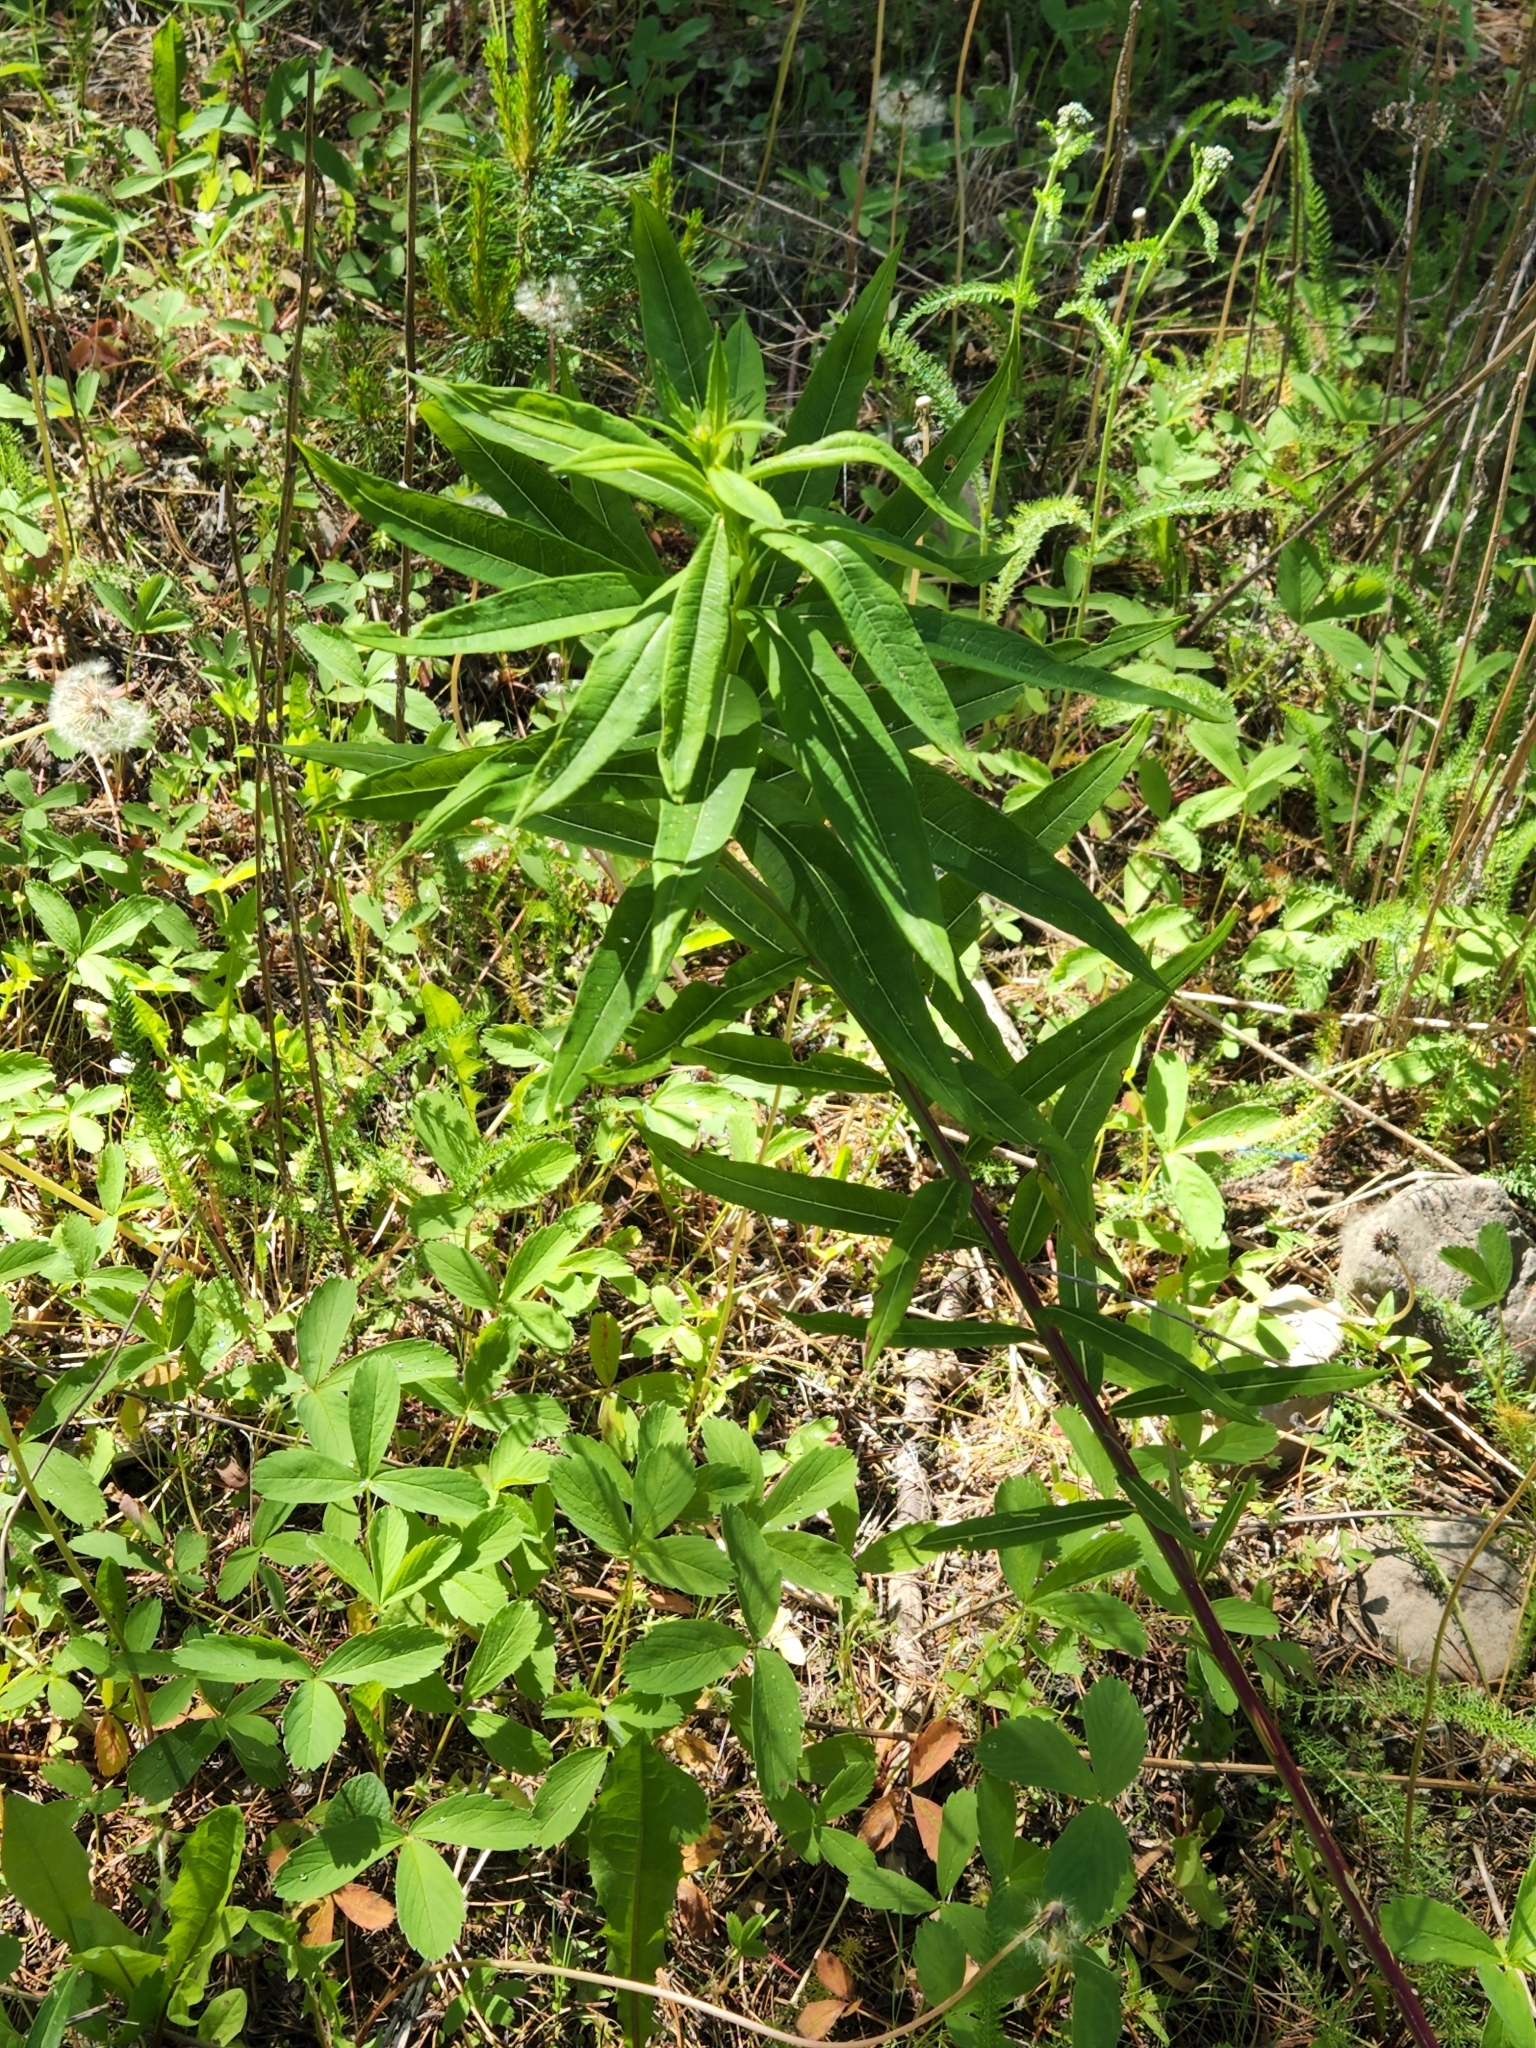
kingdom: Plantae
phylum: Tracheophyta
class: Magnoliopsida
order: Myrtales
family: Onagraceae
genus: Chamaenerion
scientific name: Chamaenerion angustifolium
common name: Fireweed
